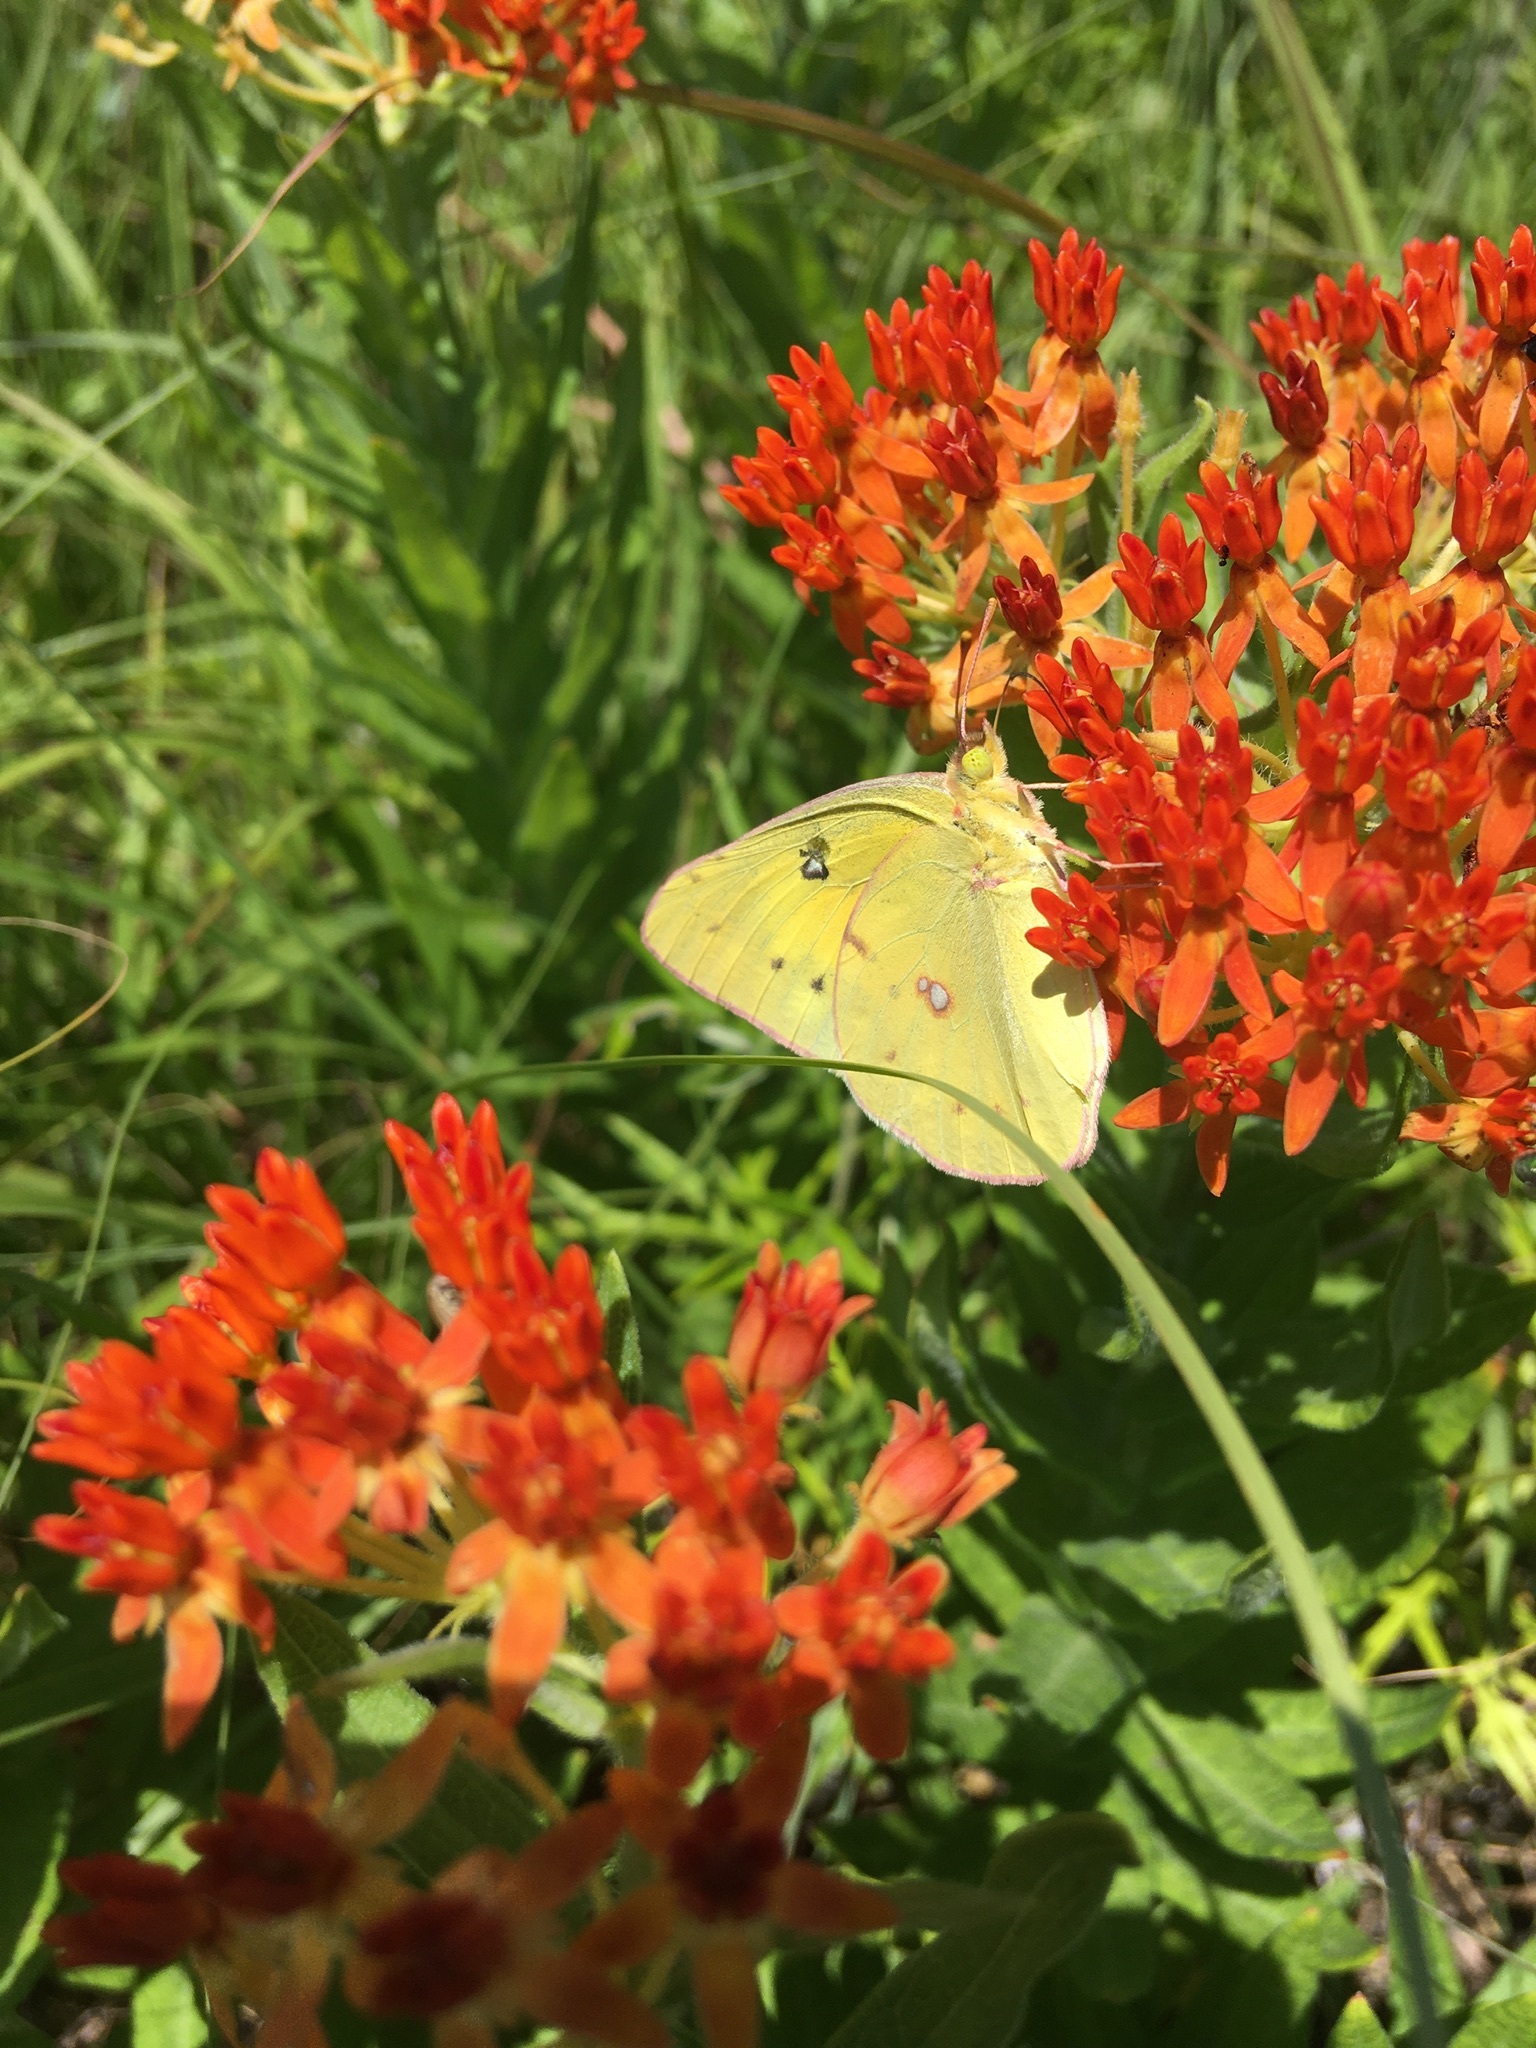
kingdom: Animalia
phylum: Arthropoda
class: Insecta
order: Lepidoptera
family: Pieridae
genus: Colias
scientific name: Colias eurytheme
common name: Alfalfa butterfly
